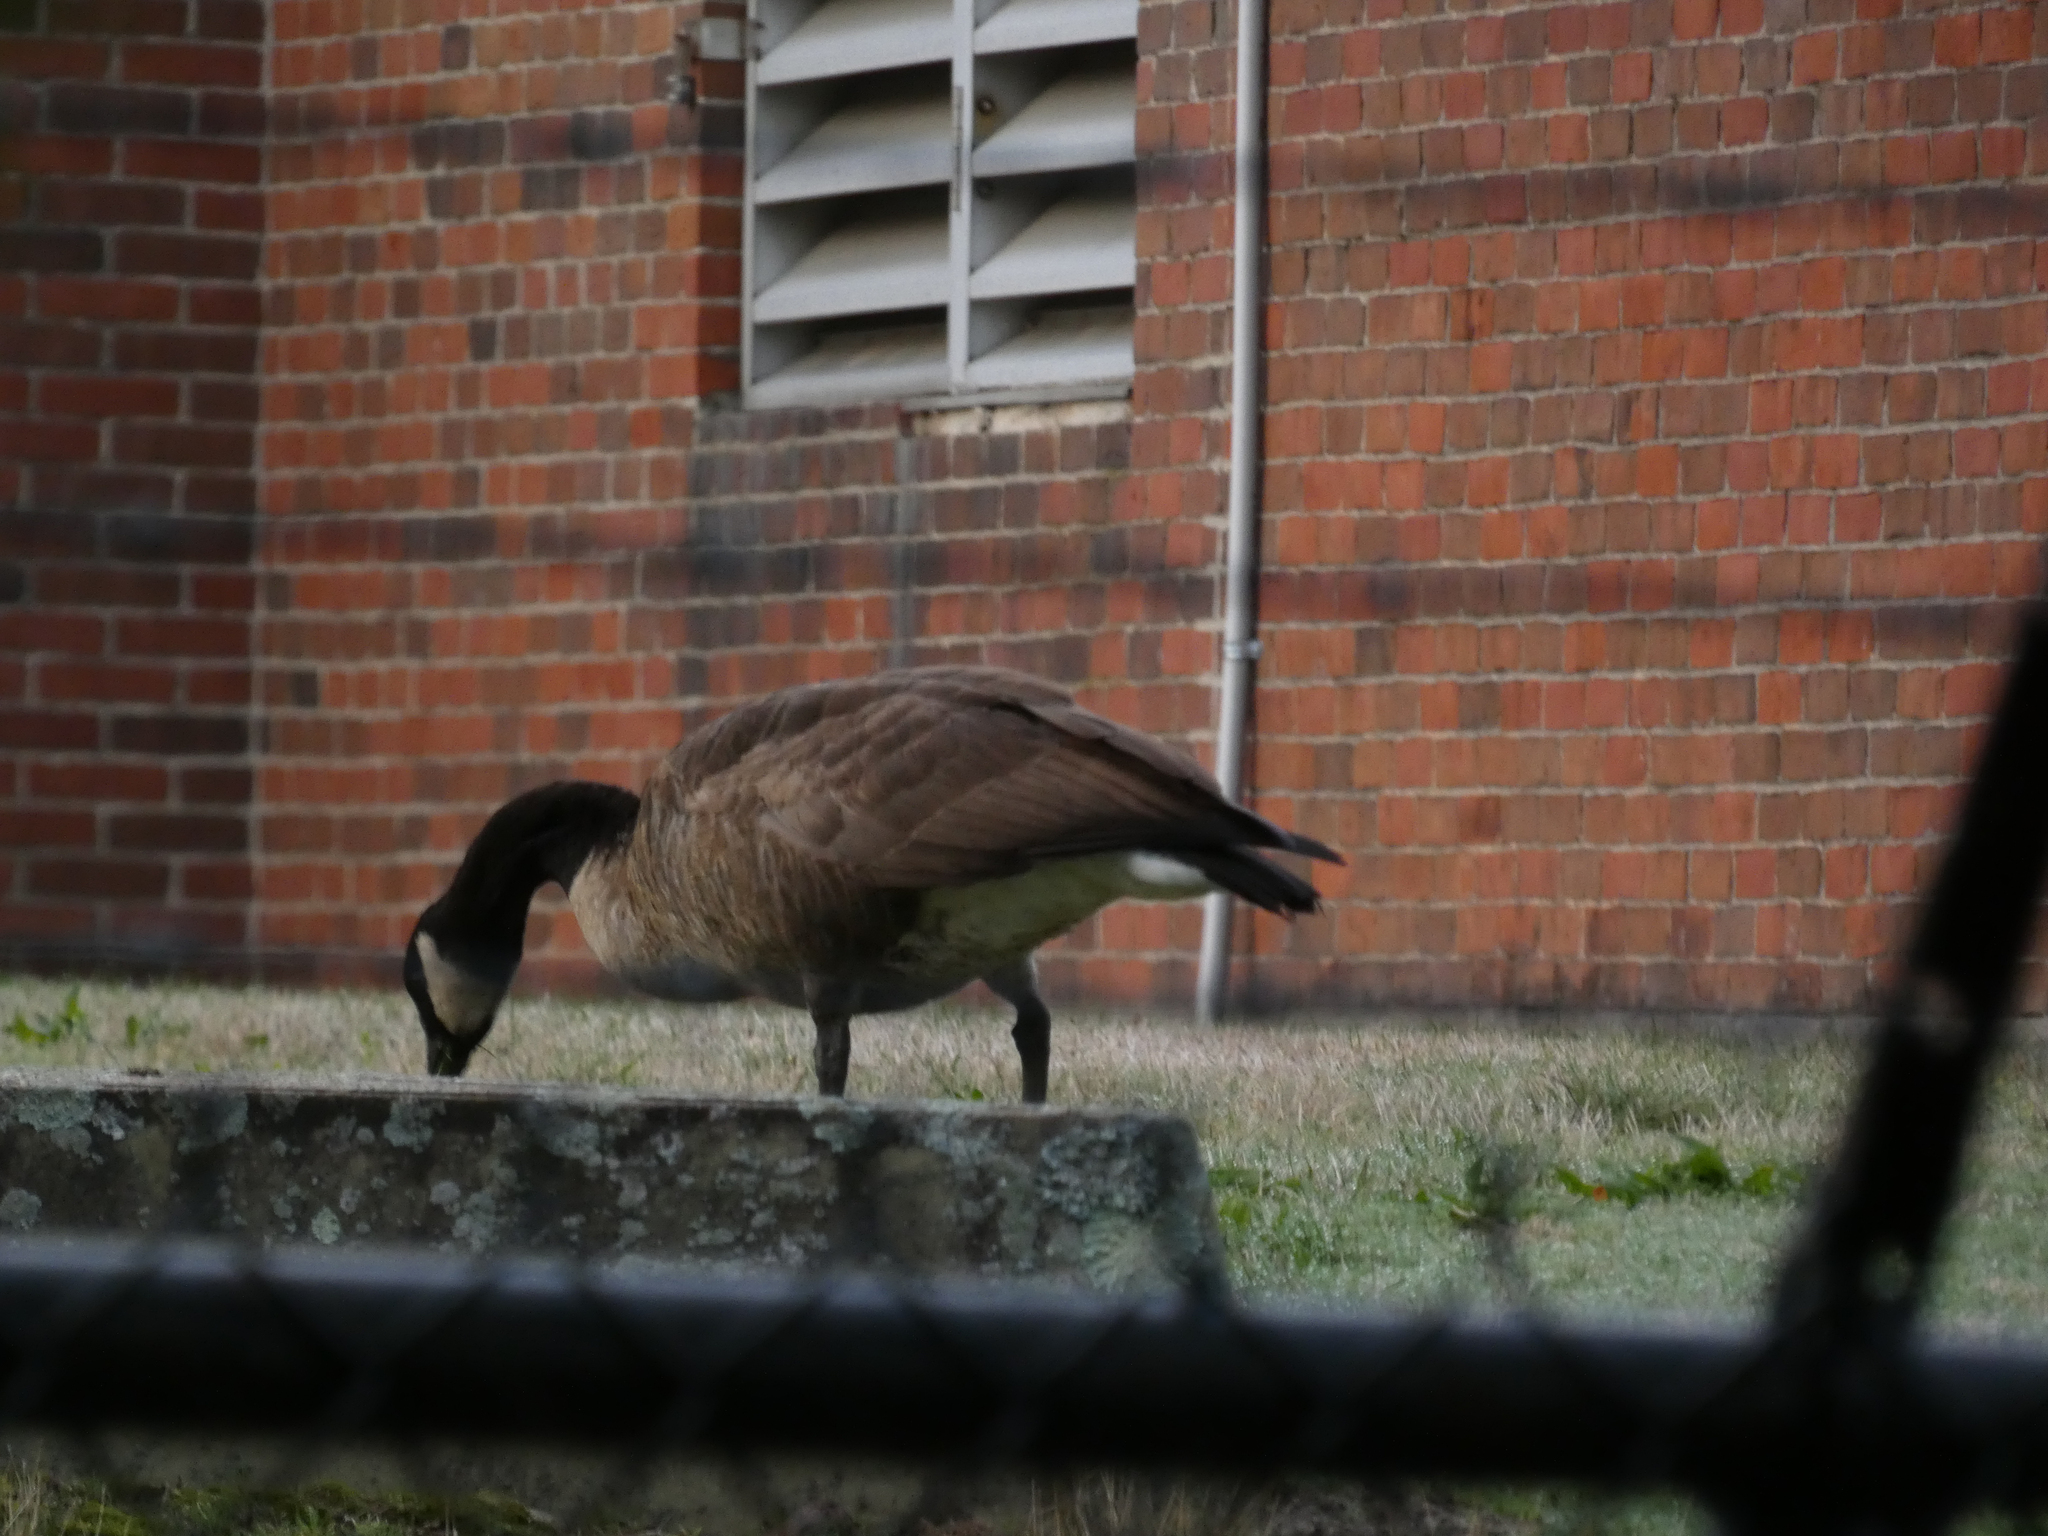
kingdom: Animalia
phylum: Chordata
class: Aves
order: Anseriformes
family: Anatidae
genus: Branta
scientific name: Branta canadensis
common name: Canada goose
